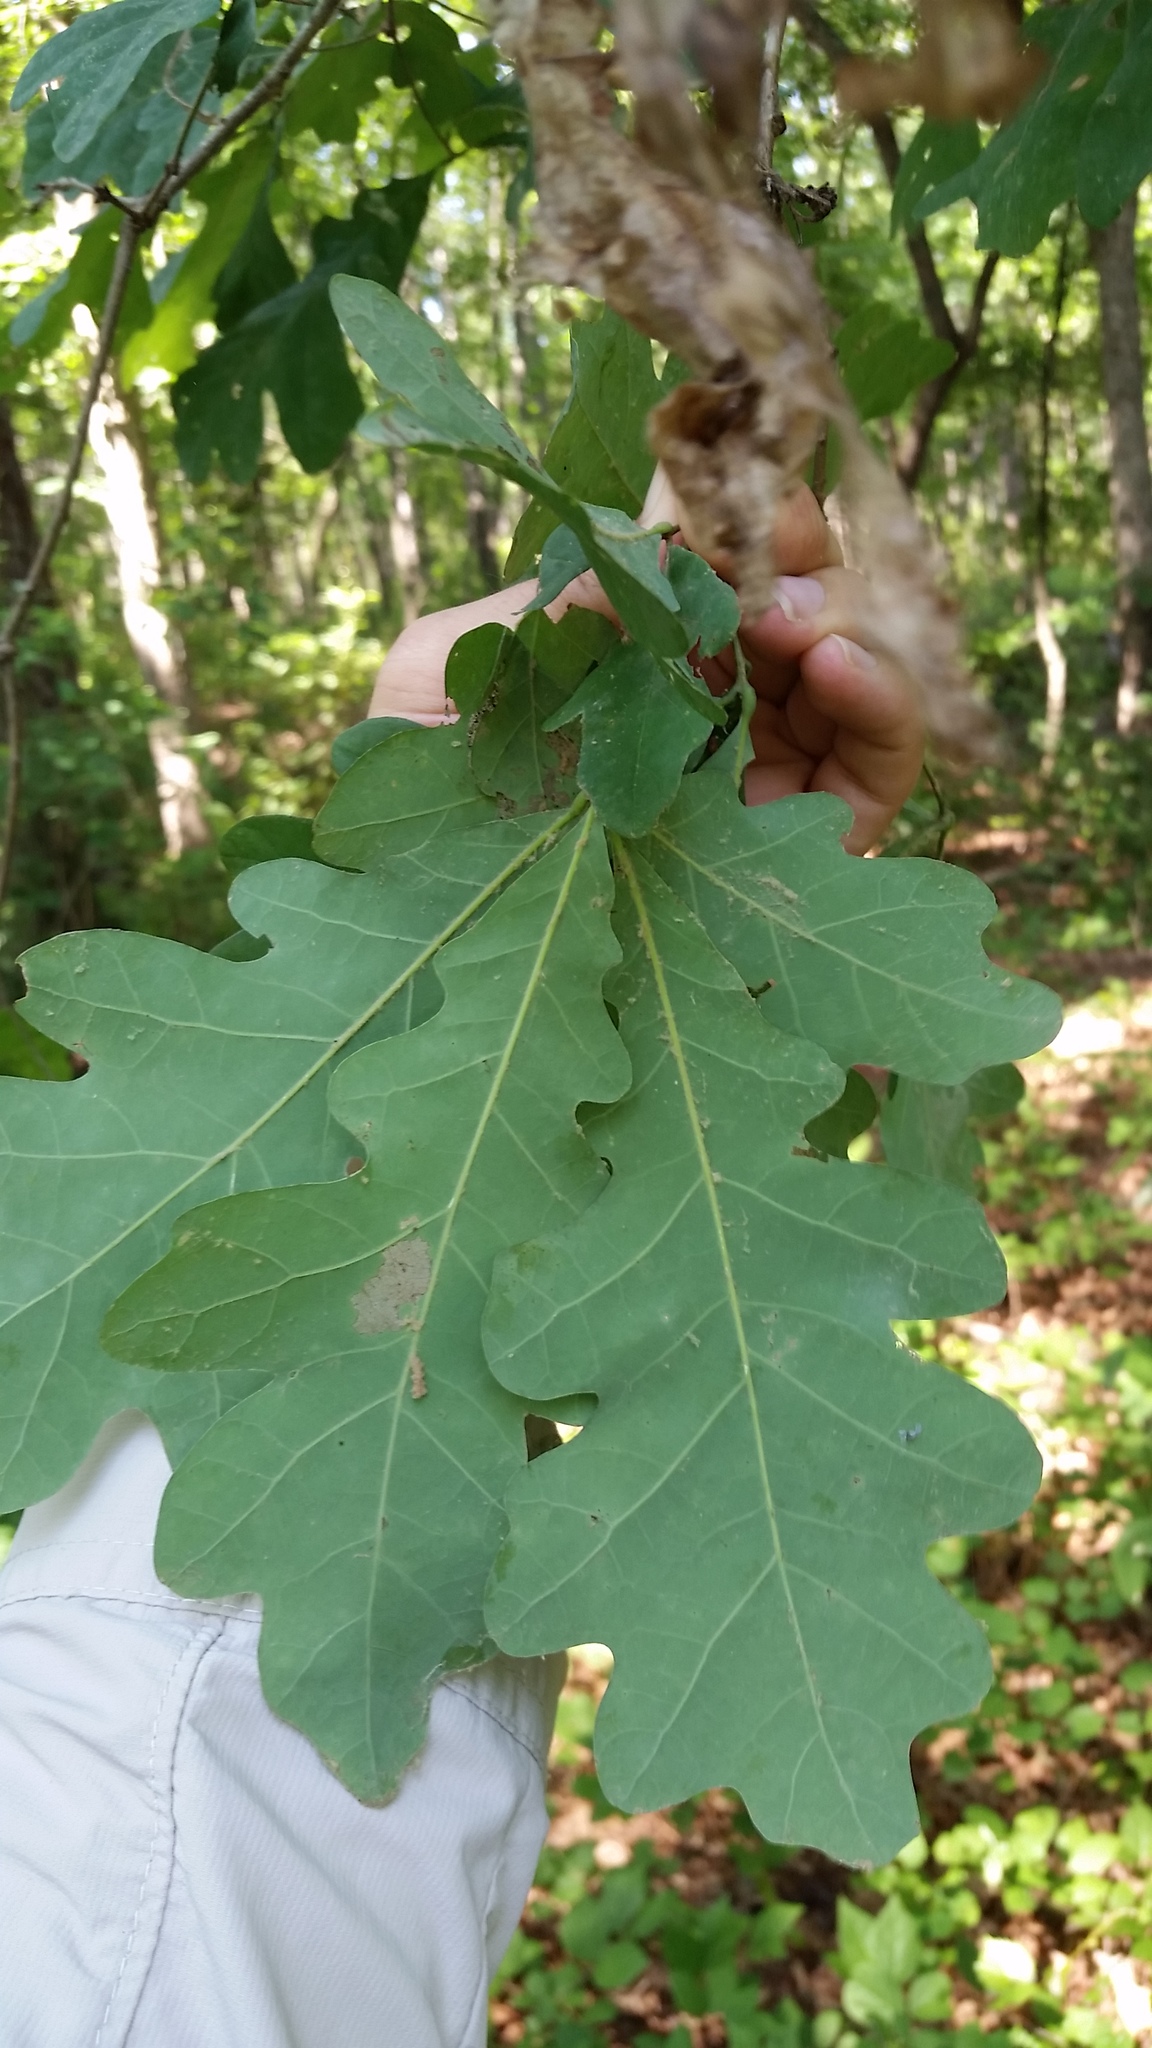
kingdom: Plantae
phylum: Tracheophyta
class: Magnoliopsida
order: Fagales
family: Fagaceae
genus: Quercus
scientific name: Quercus alba
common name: White oak
